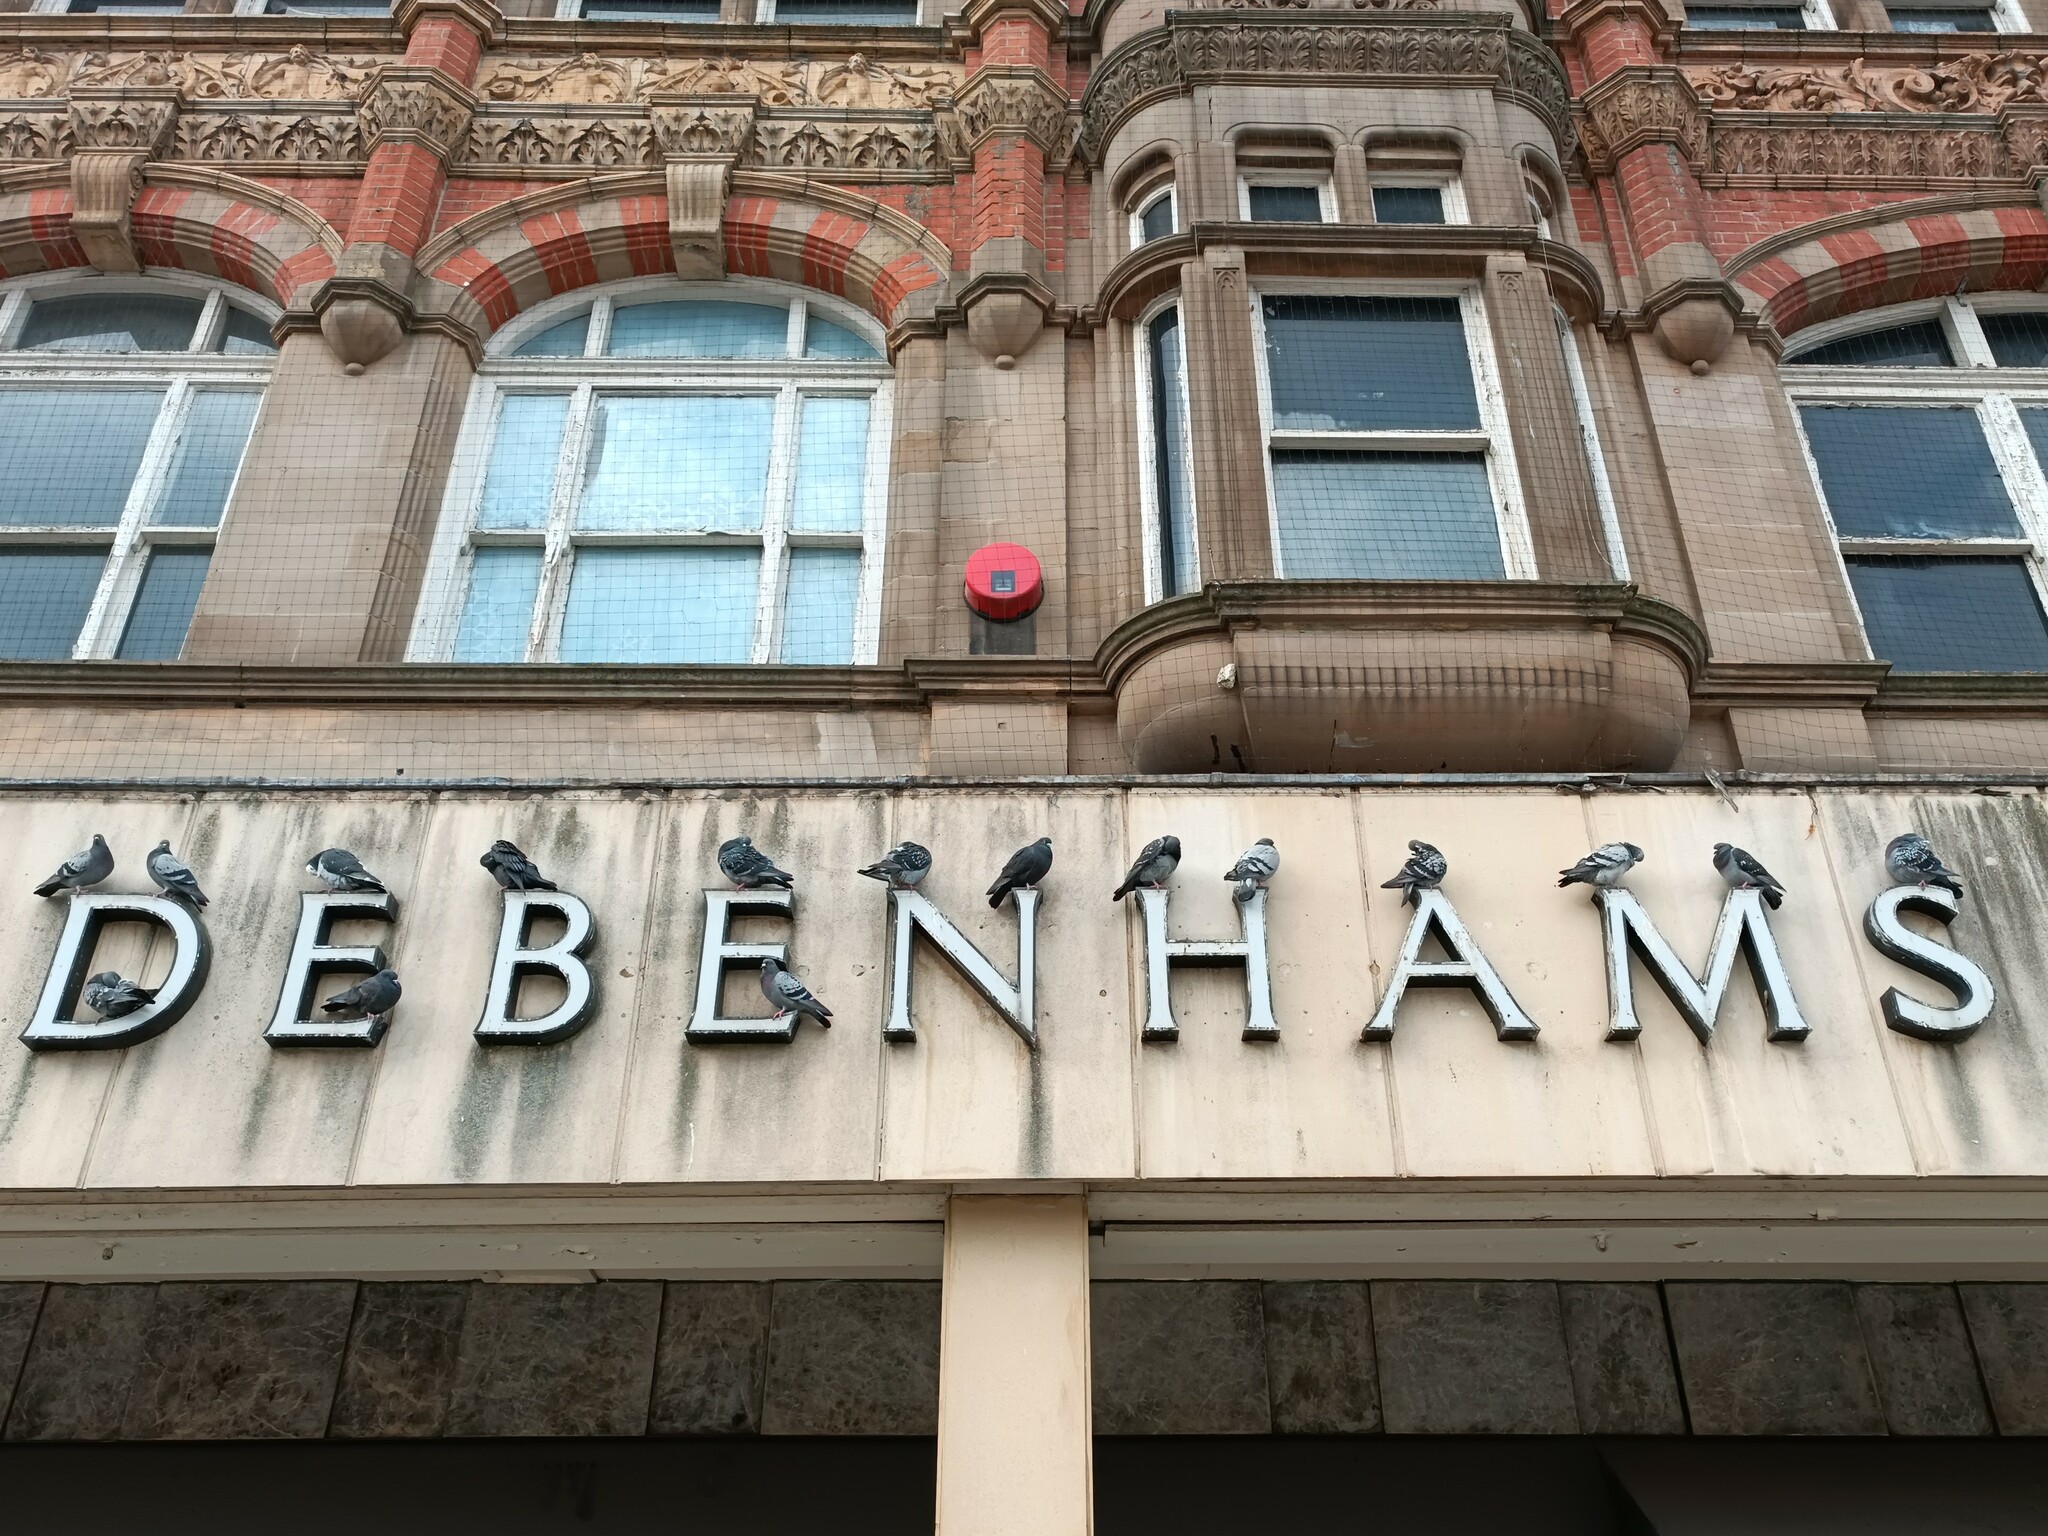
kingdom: Animalia
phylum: Chordata
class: Aves
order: Columbiformes
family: Columbidae
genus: Columba
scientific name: Columba livia
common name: Rock pigeon
